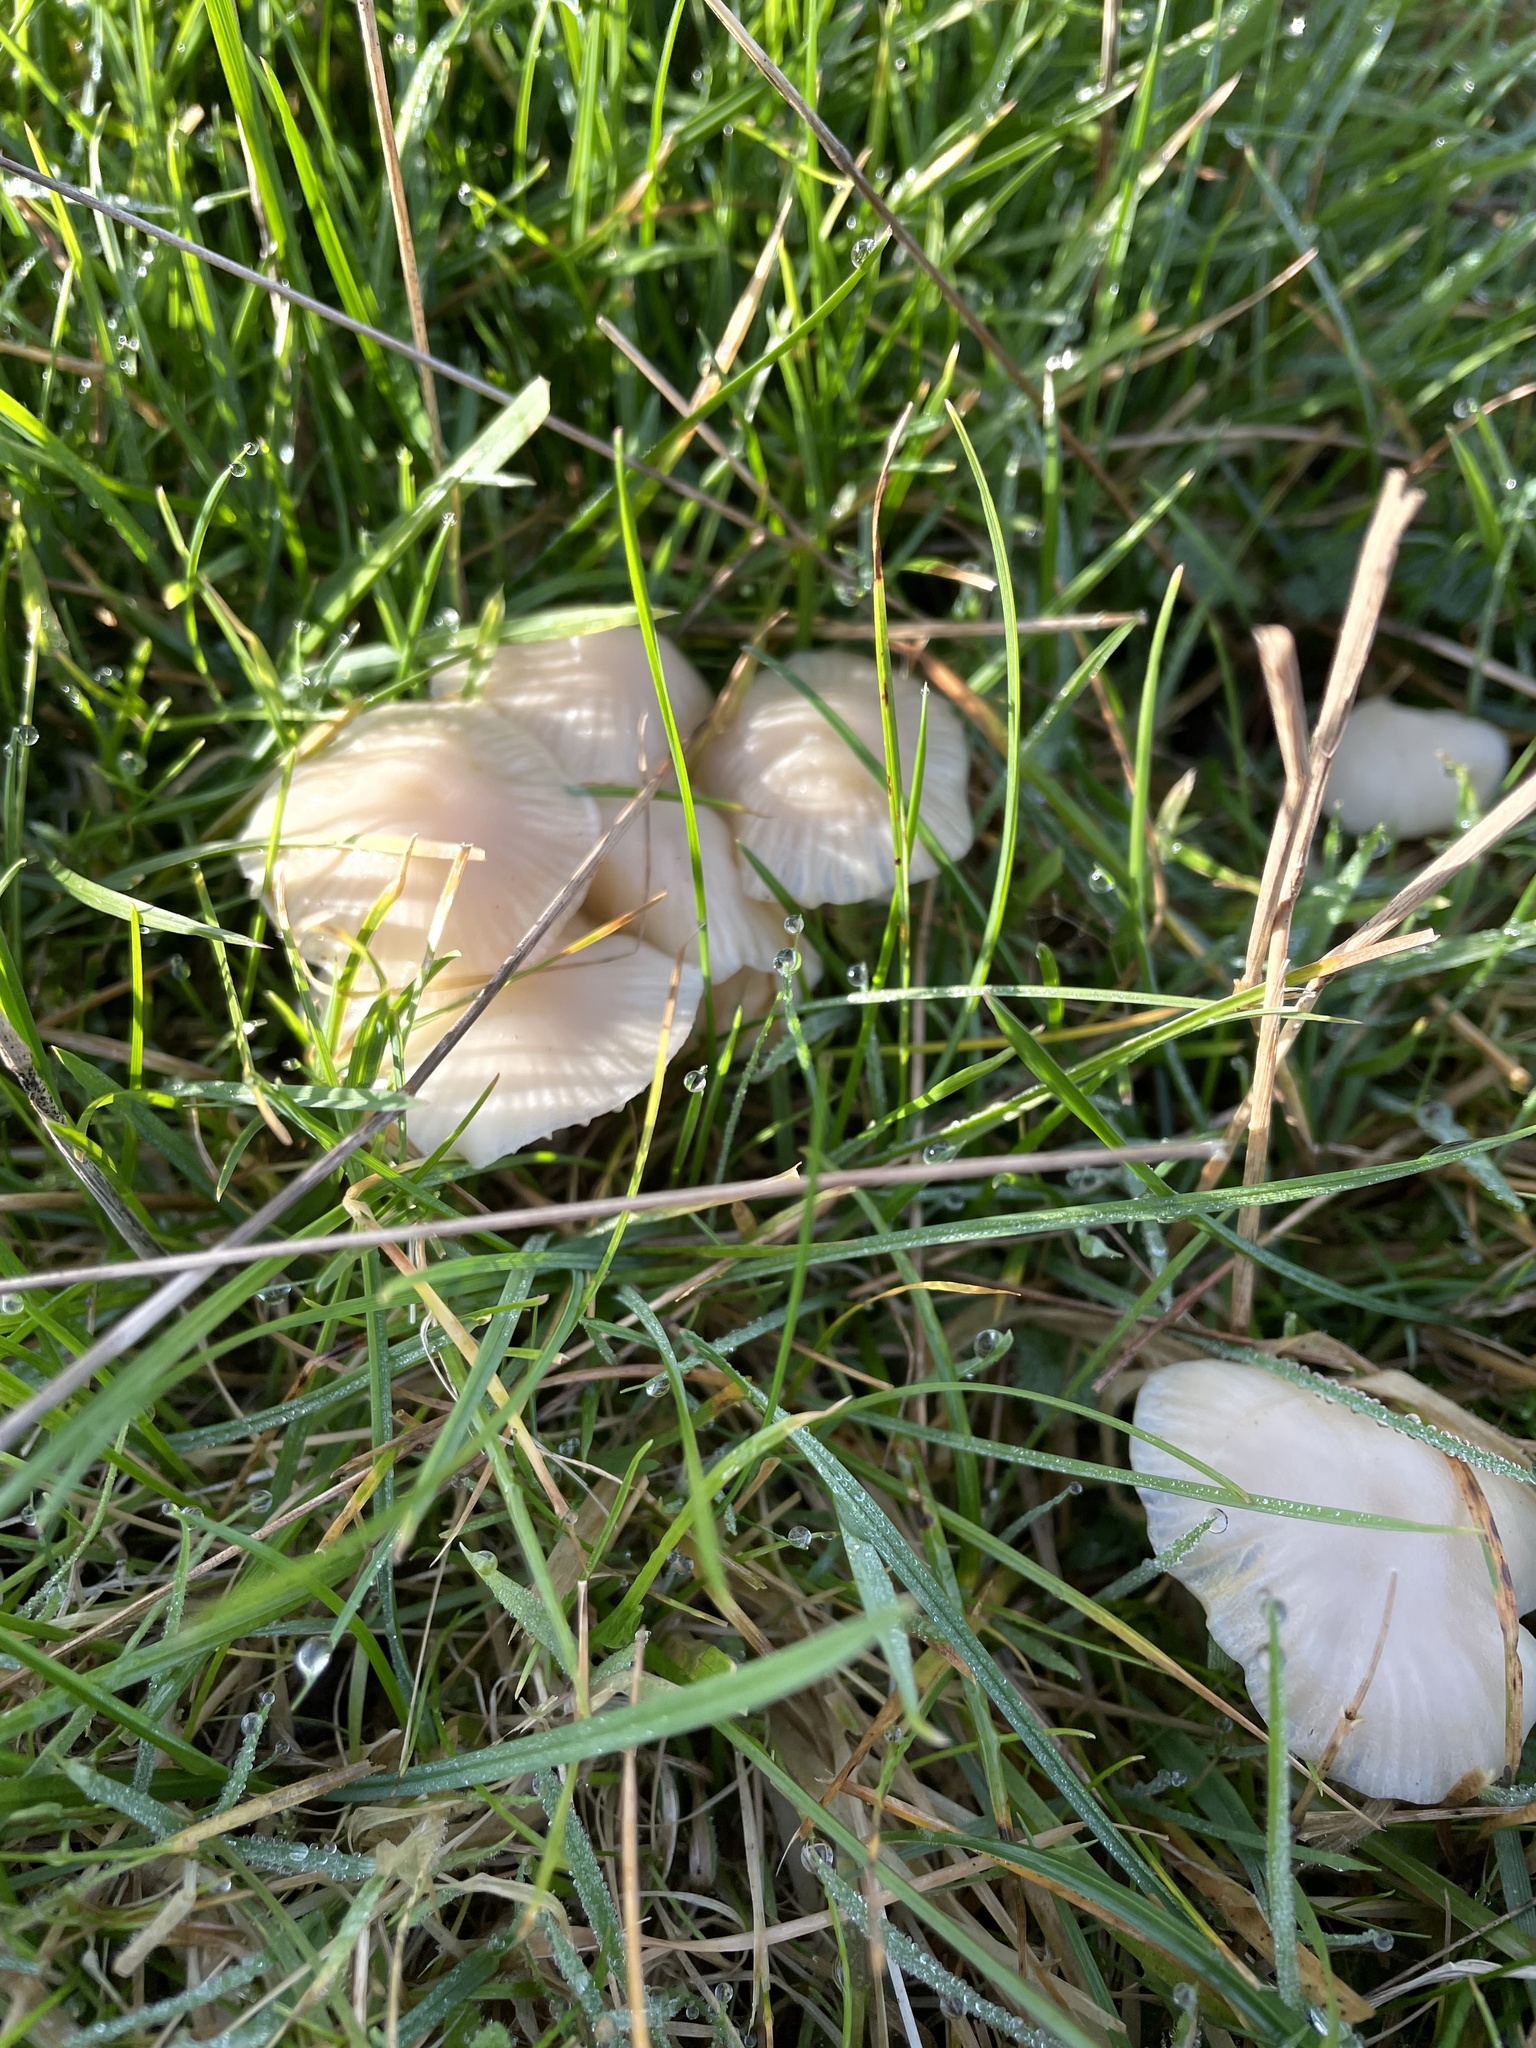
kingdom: Fungi
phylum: Basidiomycota
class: Agaricomycetes
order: Agaricales
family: Hygrophoraceae
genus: Cuphophyllus
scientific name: Cuphophyllus virgineus
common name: Snowy waxcap
